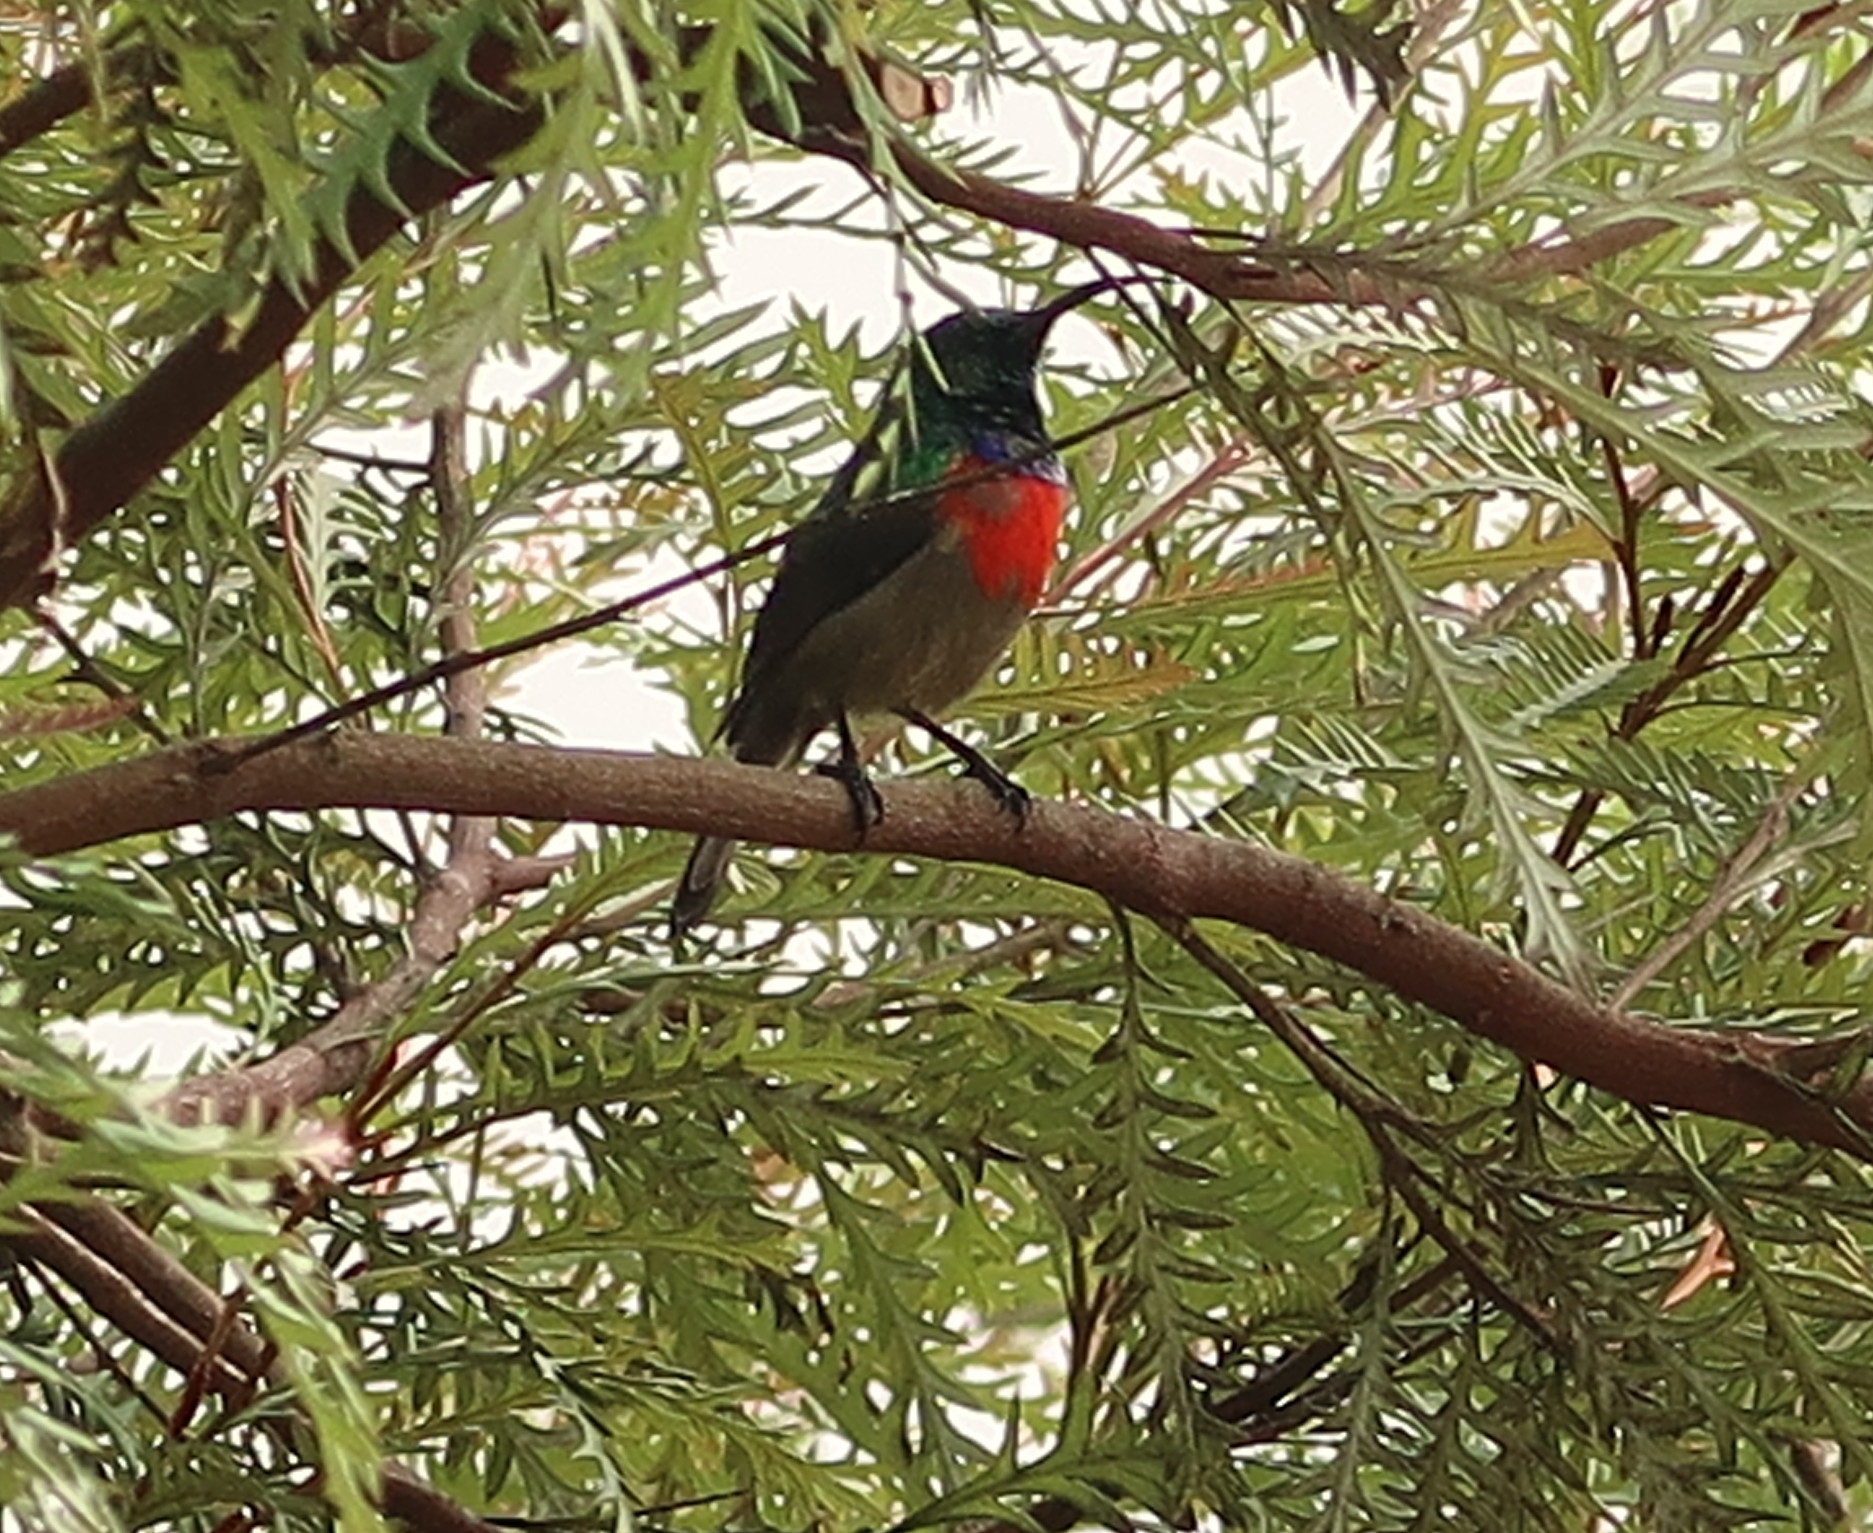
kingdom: Animalia
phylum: Chordata
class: Aves
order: Passeriformes
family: Nectariniidae
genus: Cinnyris
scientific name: Cinnyris afer
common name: Greater double-collared sunbird
